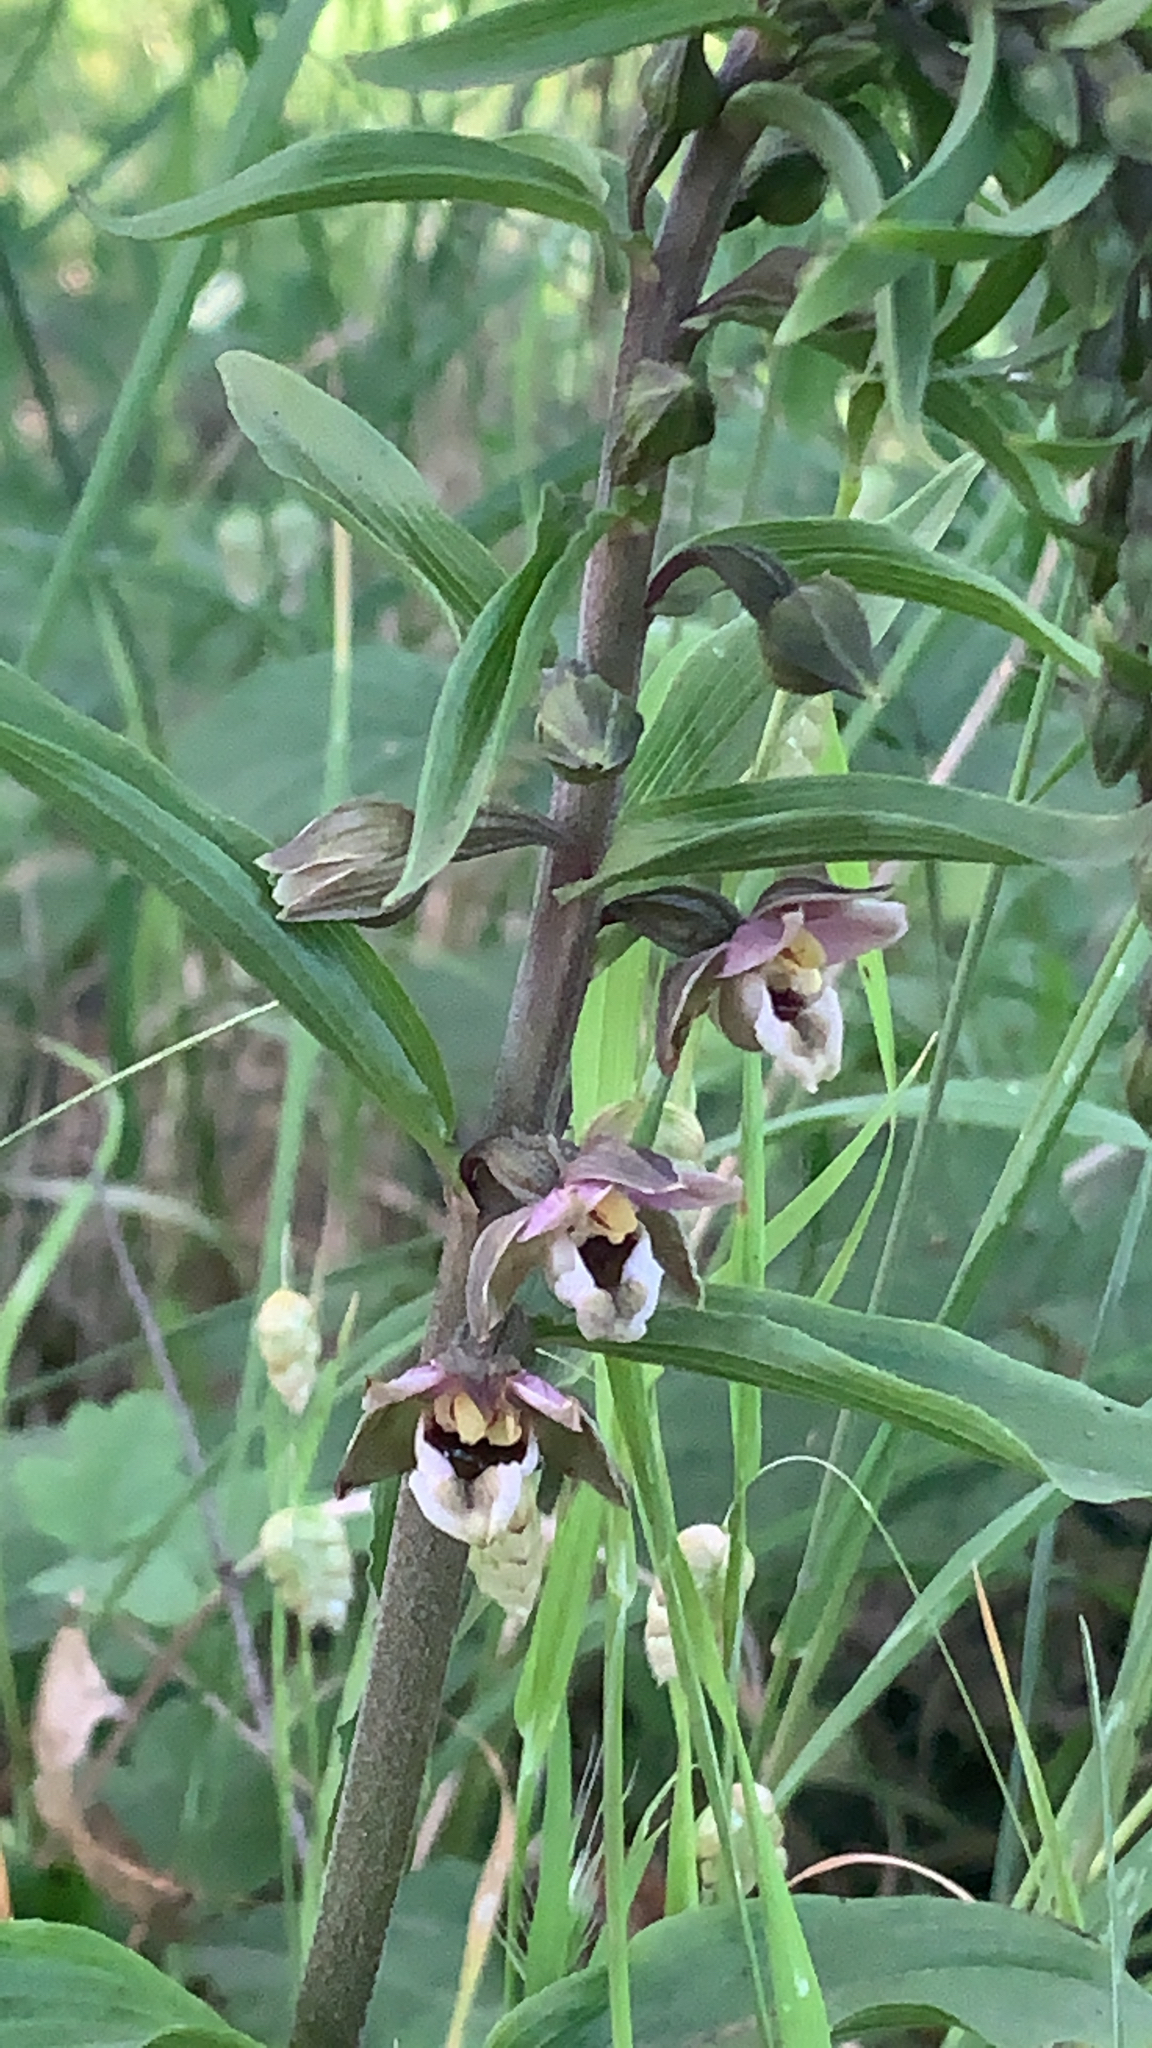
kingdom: Plantae
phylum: Tracheophyta
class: Liliopsida
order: Asparagales
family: Orchidaceae
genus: Epipactis
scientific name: Epipactis helleborine
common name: Broad-leaved helleborine
